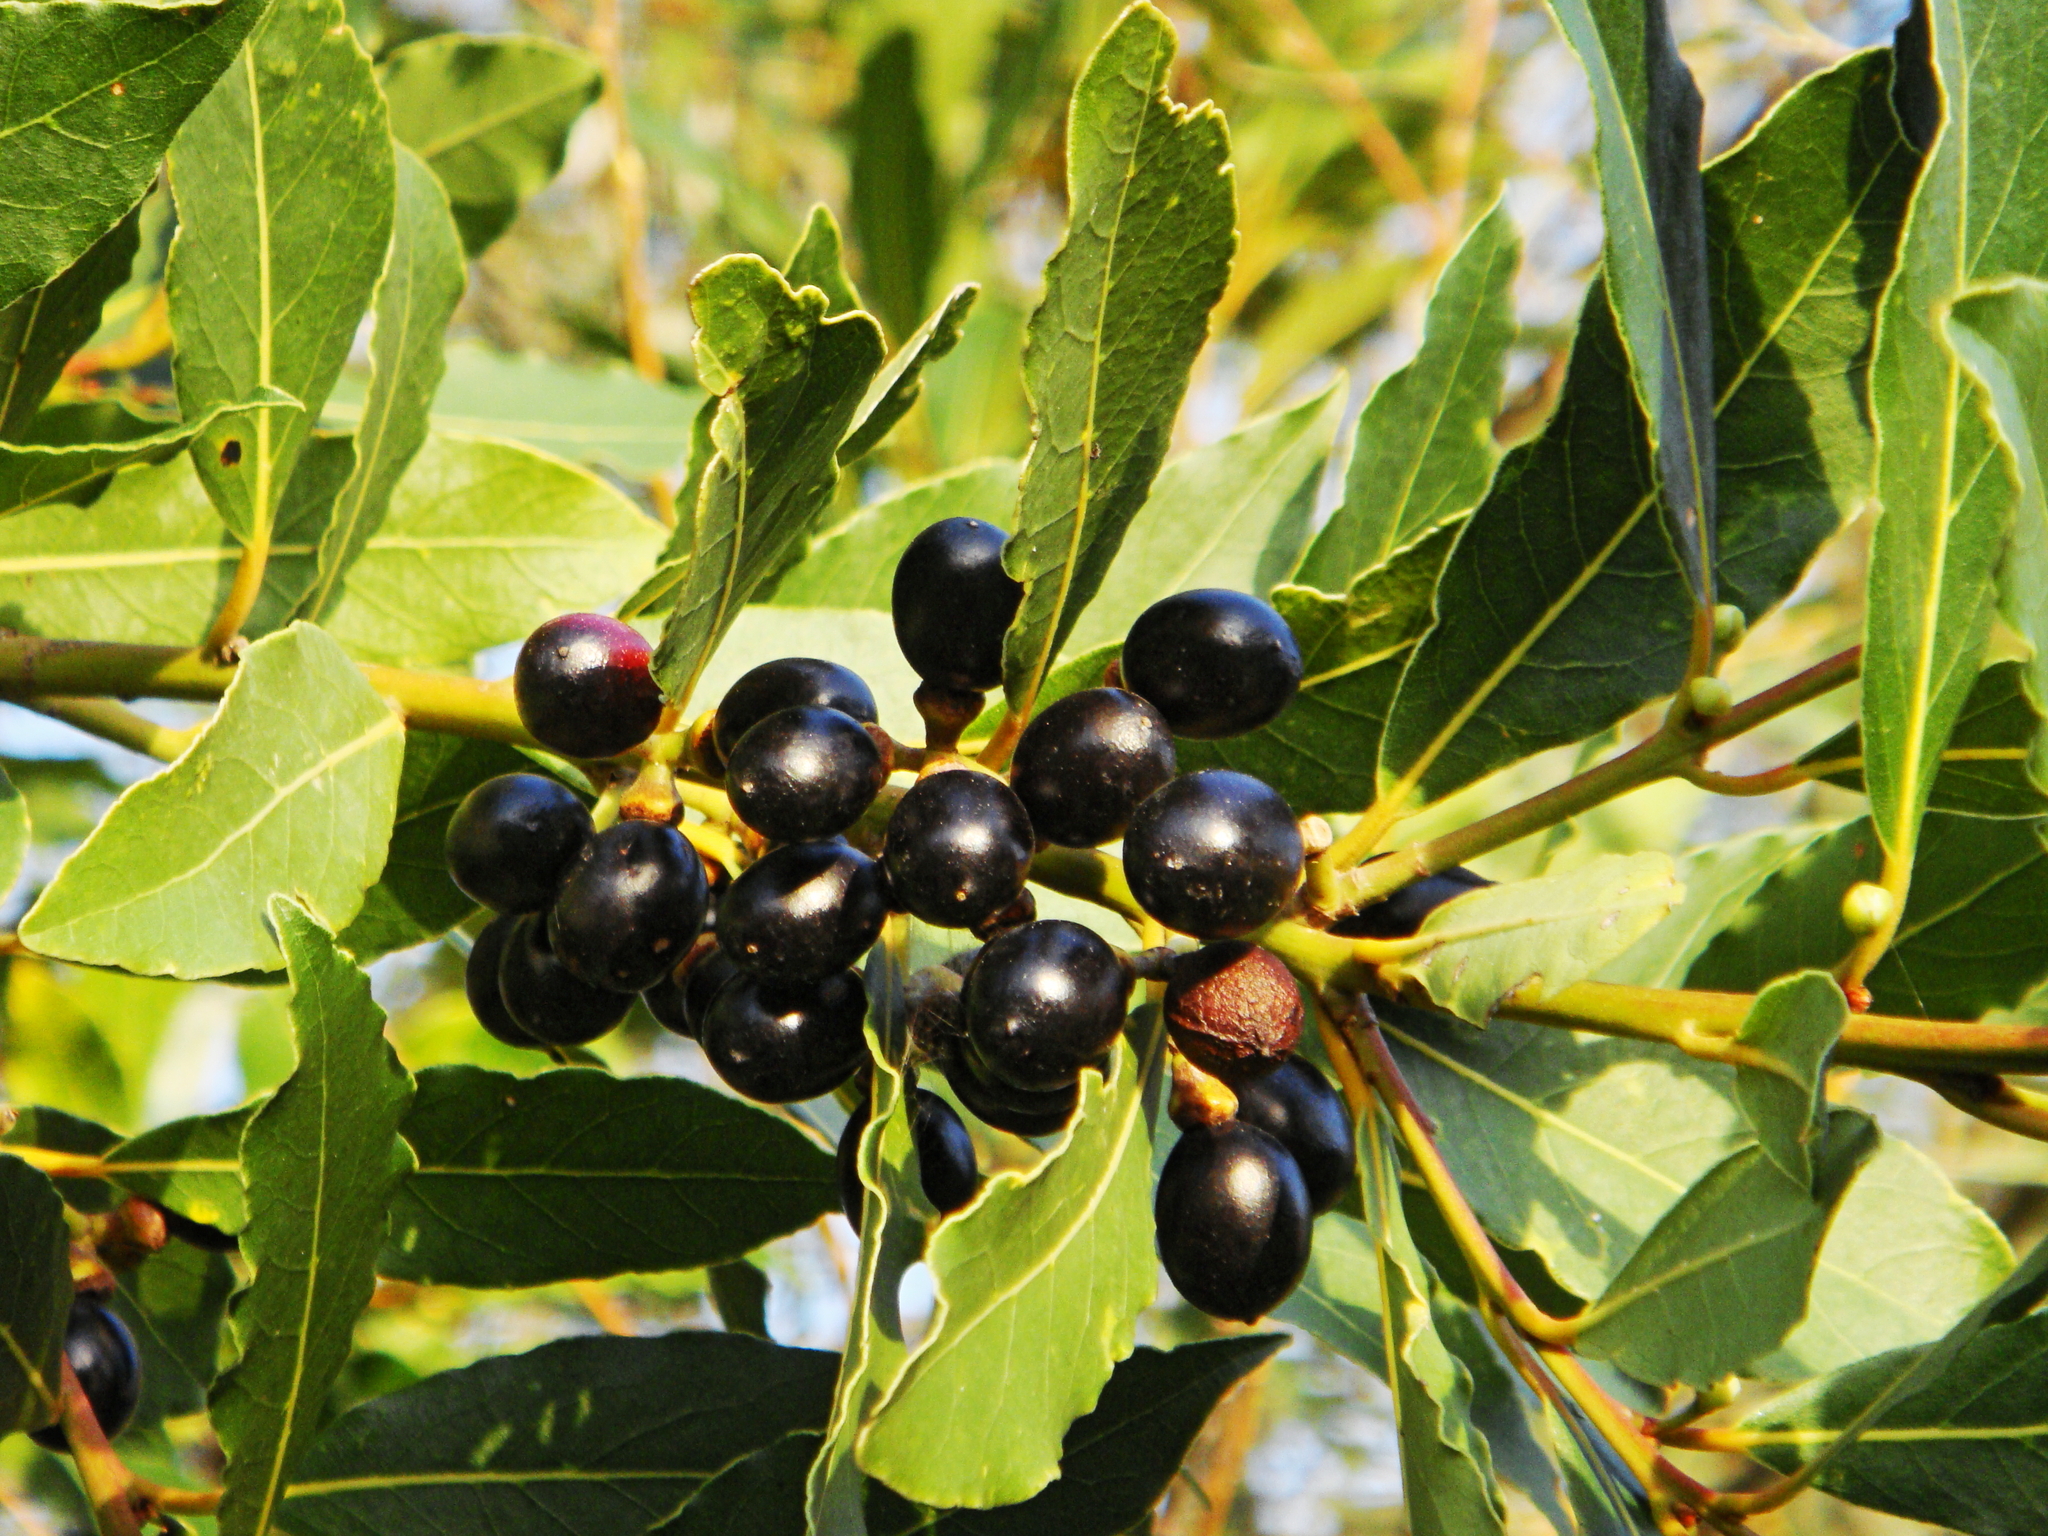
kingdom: Plantae
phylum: Tracheophyta
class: Magnoliopsida
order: Laurales
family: Lauraceae
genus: Laurus
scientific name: Laurus nobilis
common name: Bay
